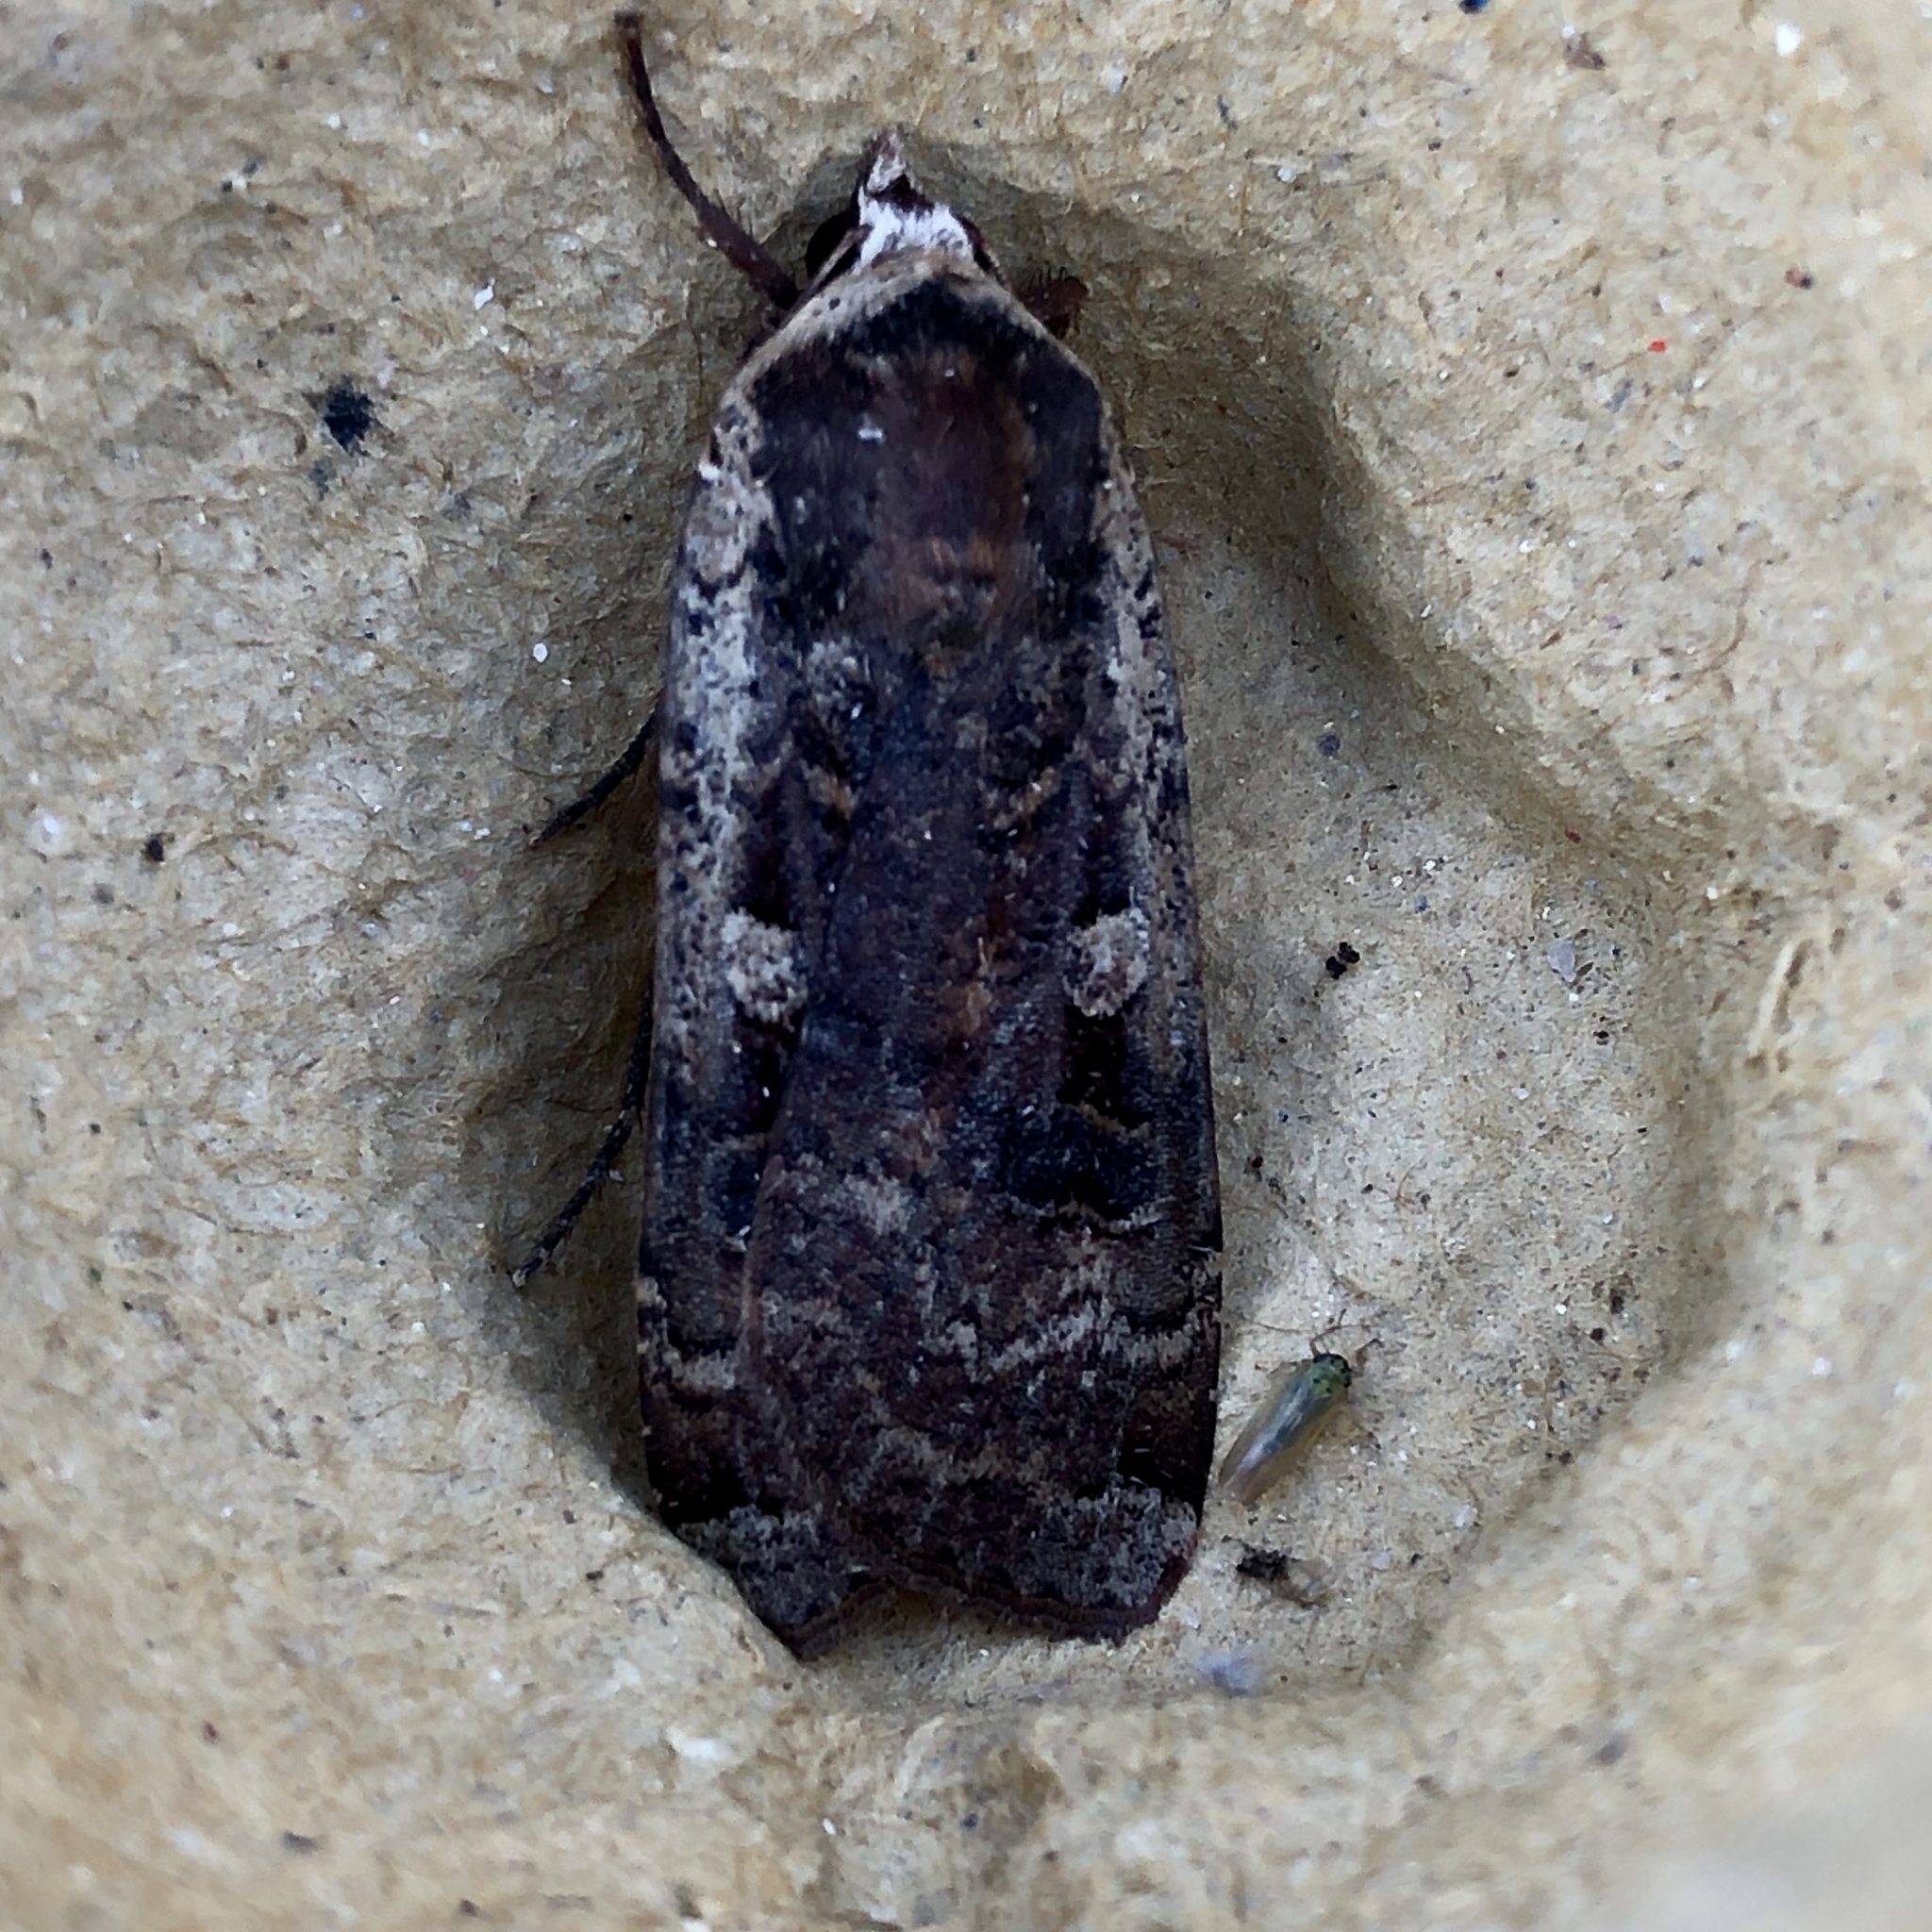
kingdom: Animalia
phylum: Arthropoda
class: Insecta
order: Lepidoptera
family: Noctuidae
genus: Noctua
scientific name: Noctua pronuba
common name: Large yellow underwing
